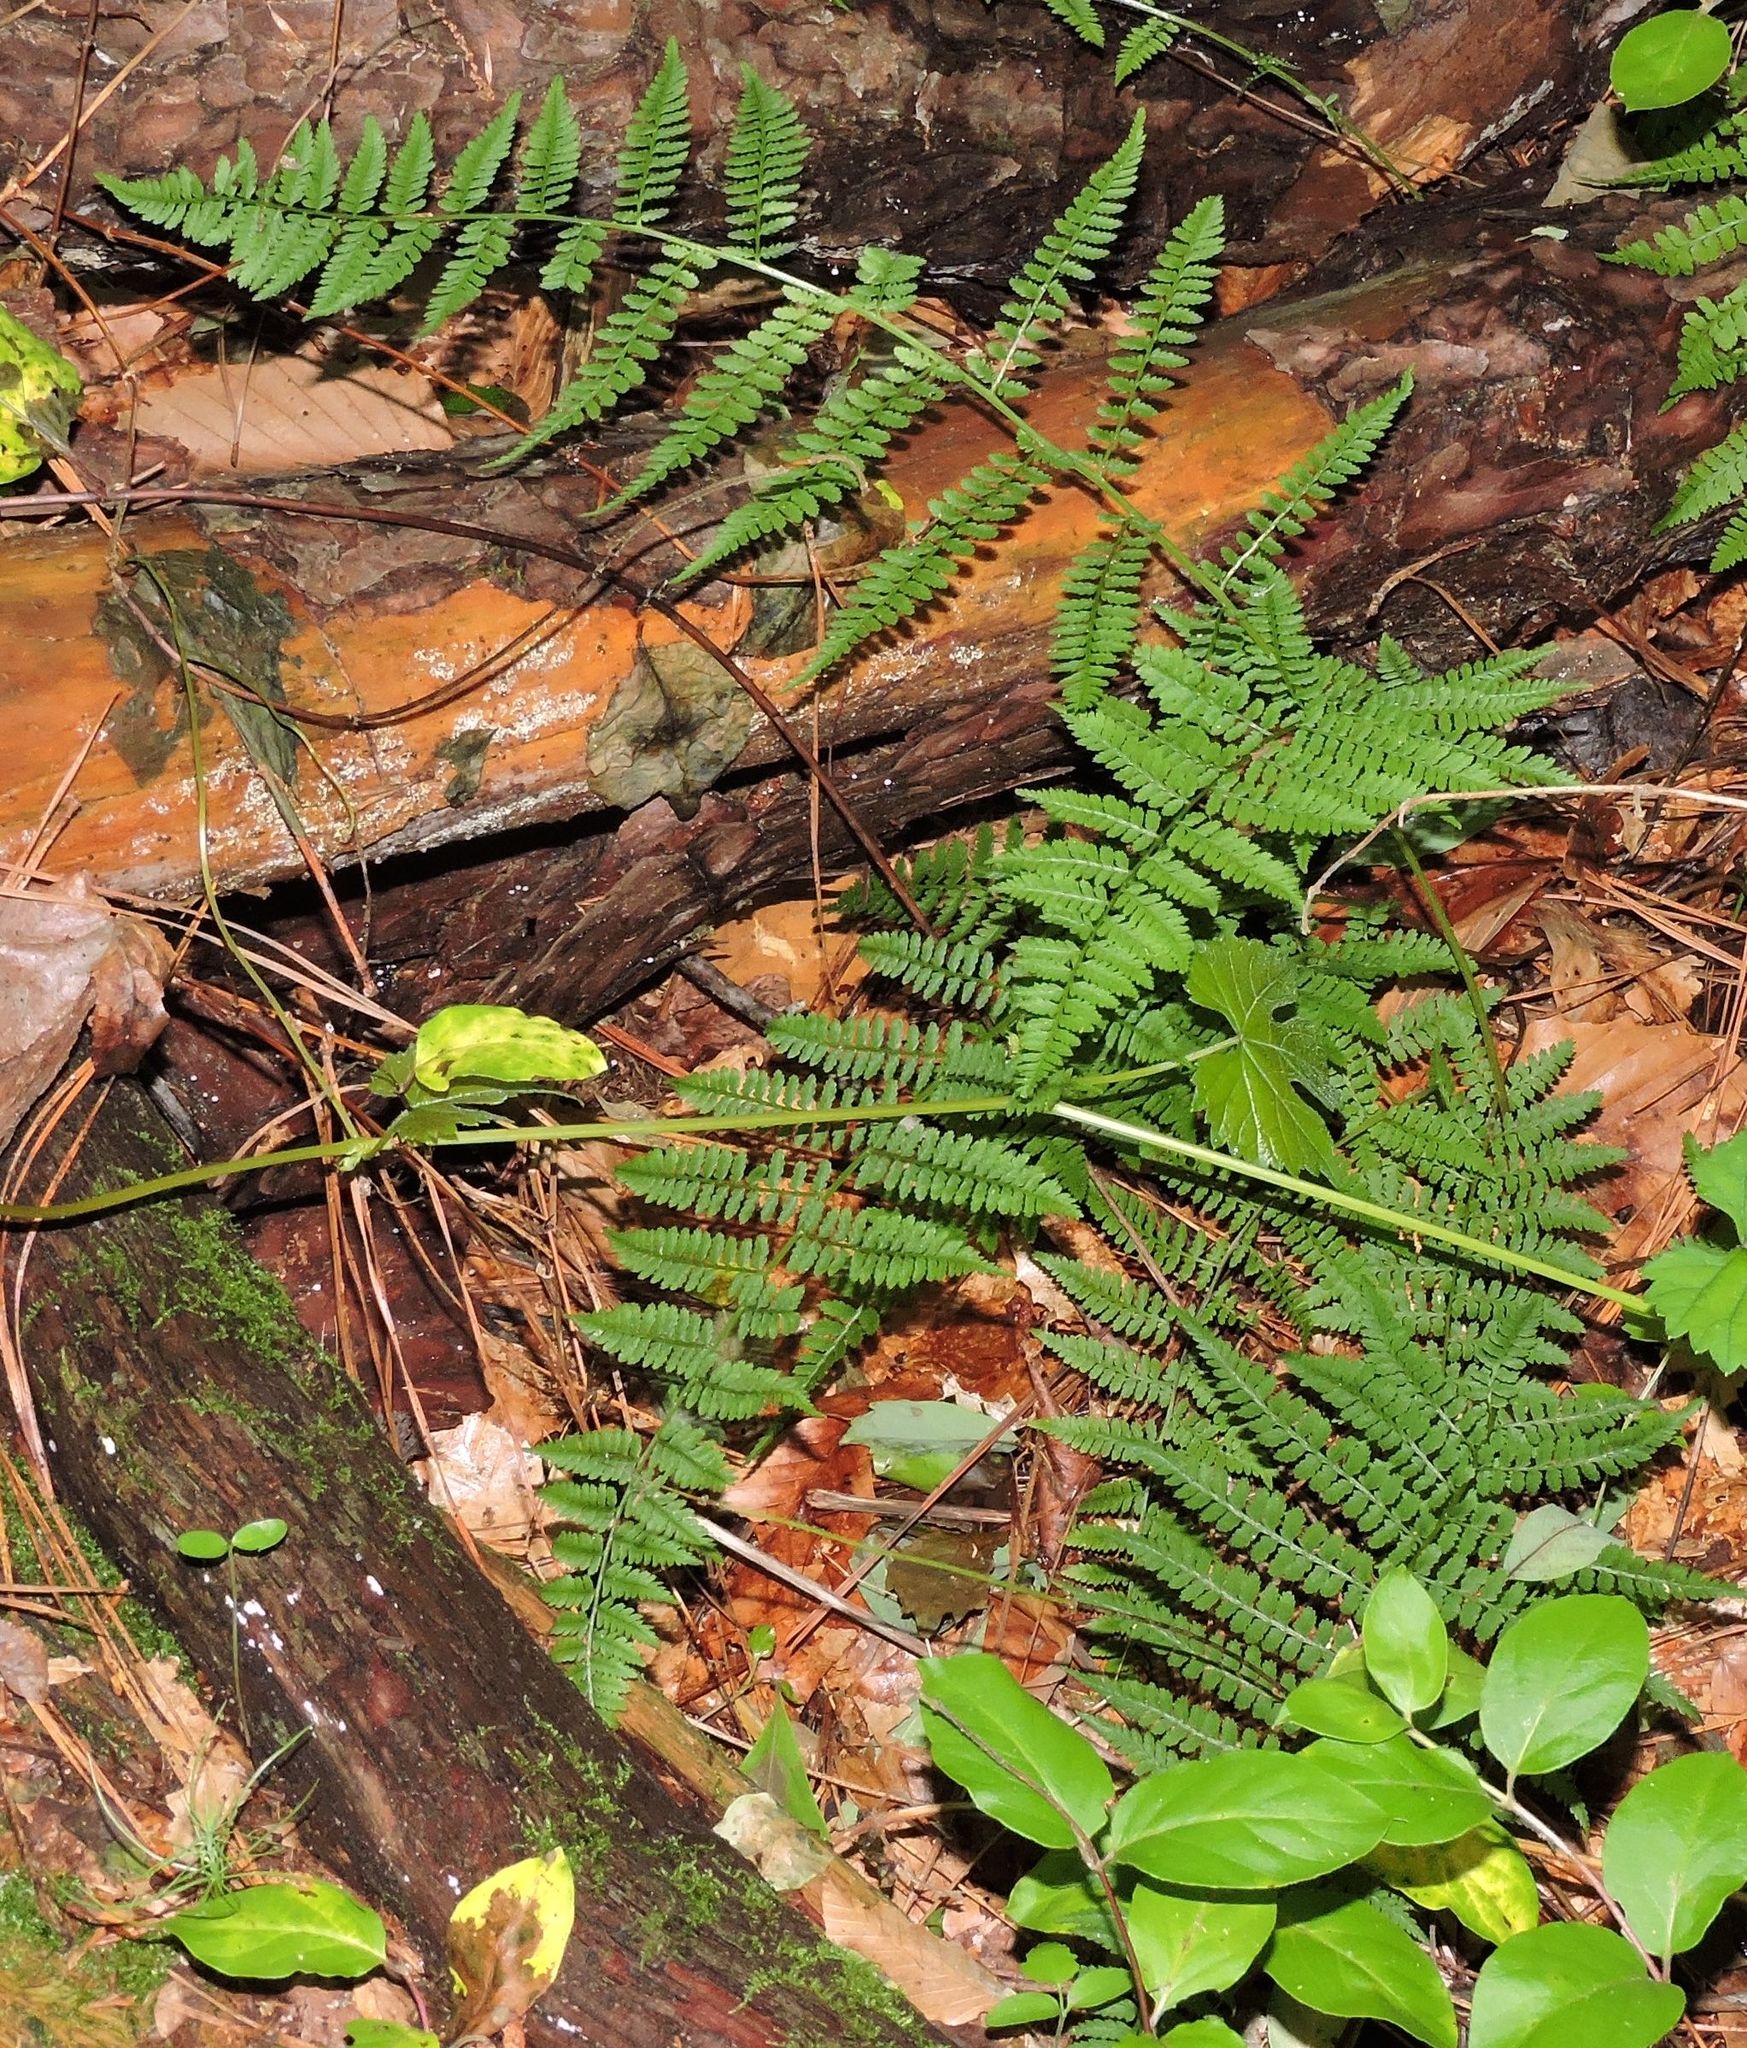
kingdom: Plantae
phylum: Tracheophyta
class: Polypodiopsida
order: Polypodiales
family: Athyriaceae
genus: Athyrium
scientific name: Athyrium asplenioides
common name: Southern lady fern
